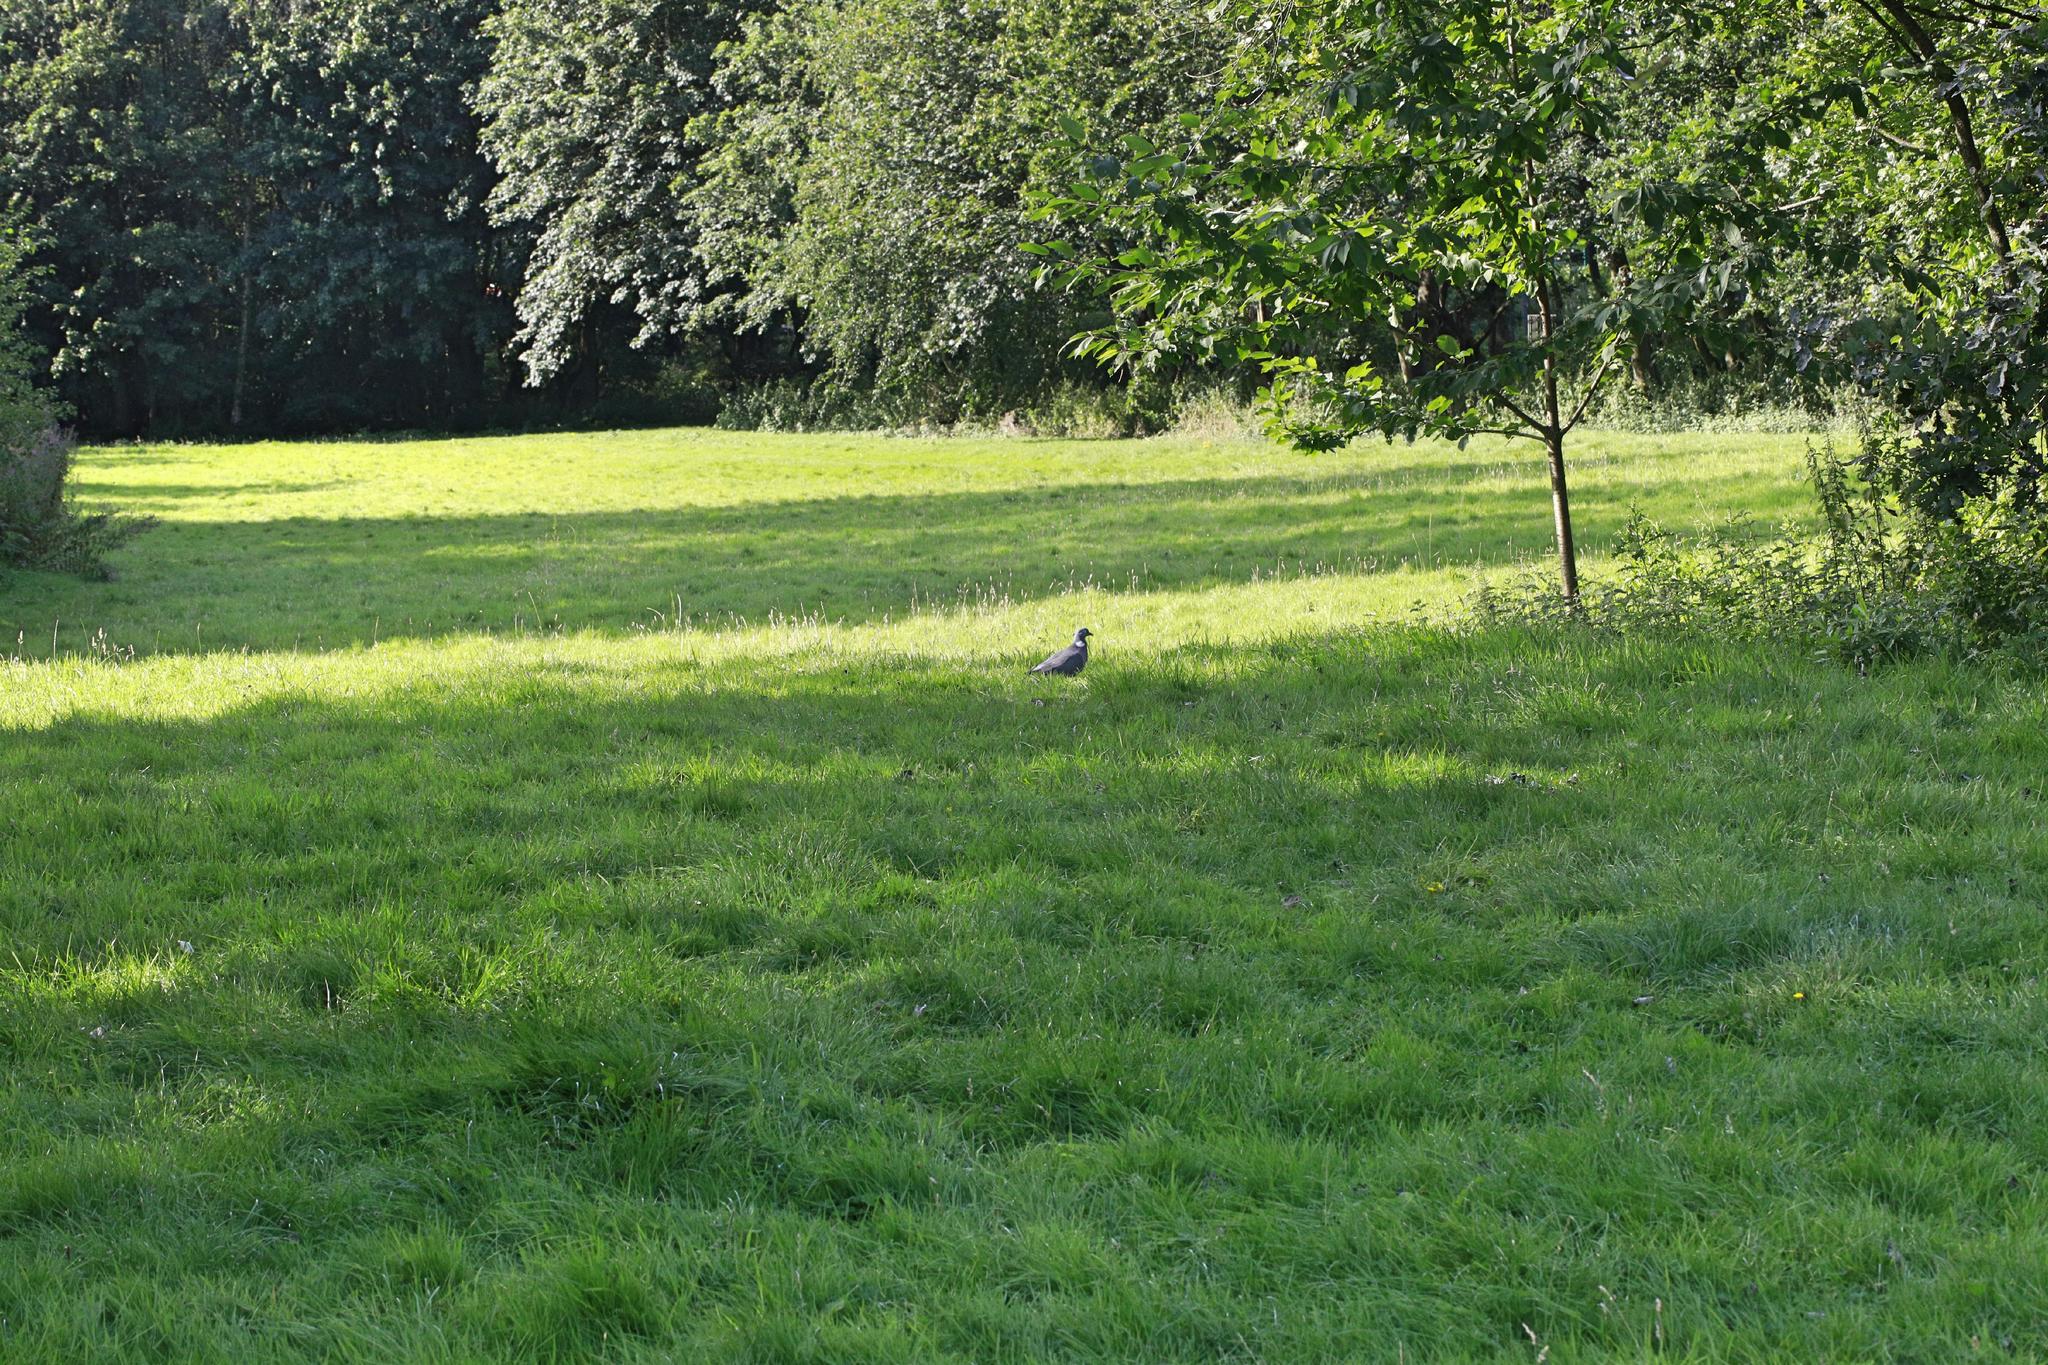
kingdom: Animalia
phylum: Chordata
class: Aves
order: Columbiformes
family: Columbidae
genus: Columba
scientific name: Columba palumbus
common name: Common wood pigeon
